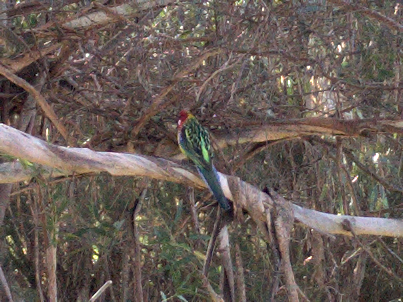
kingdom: Animalia
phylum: Chordata
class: Aves
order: Psittaciformes
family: Psittacidae
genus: Platycercus
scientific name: Platycercus eximius
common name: Eastern rosella
